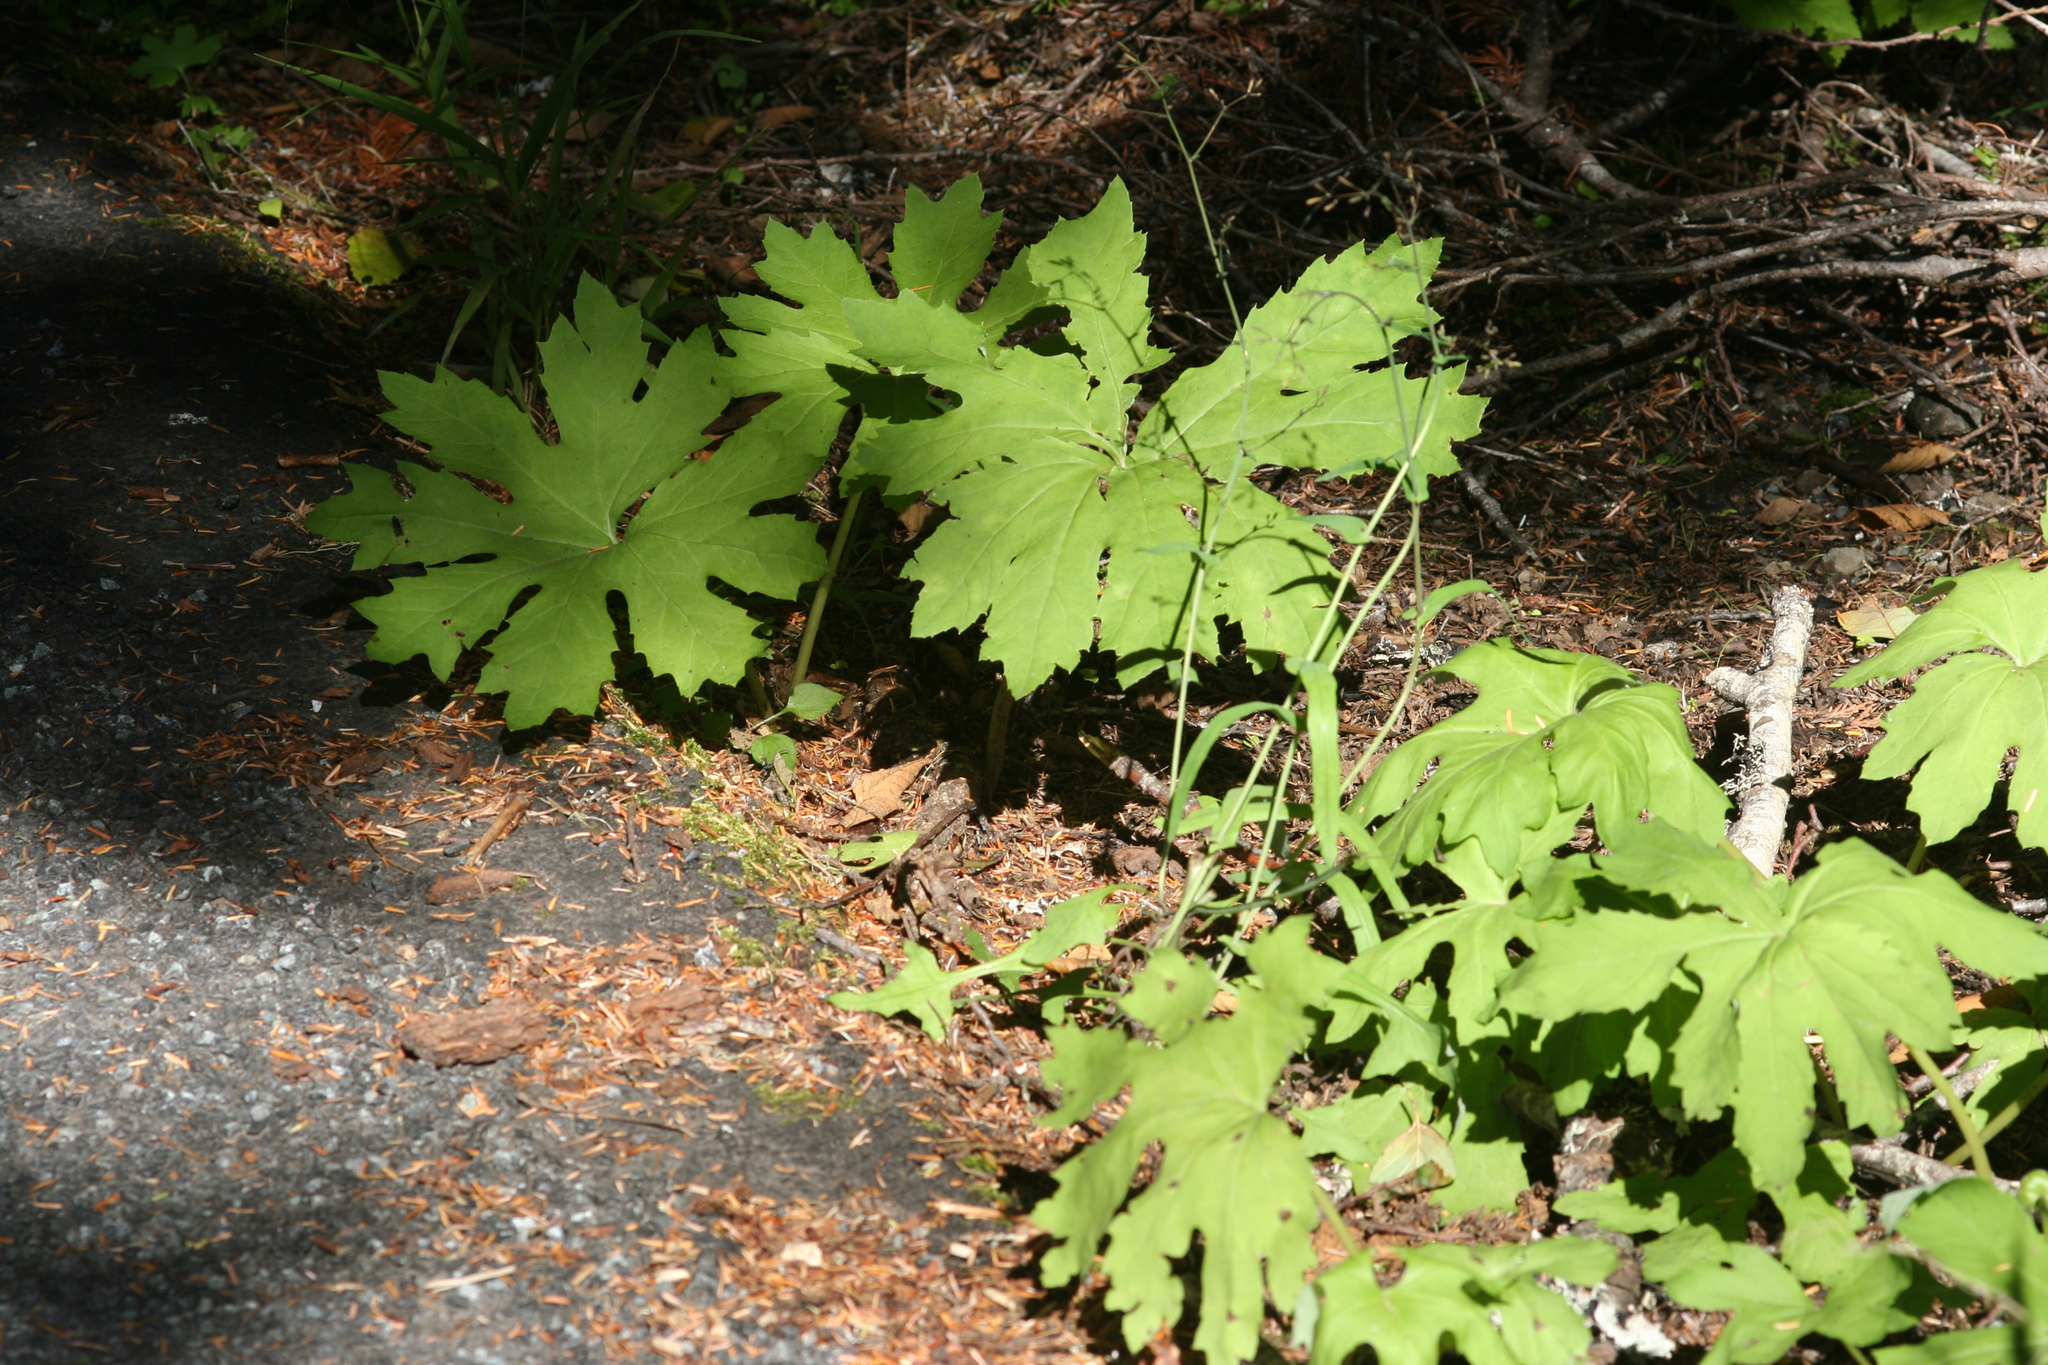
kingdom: Plantae
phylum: Tracheophyta
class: Magnoliopsida
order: Asterales
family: Asteraceae
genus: Petasites
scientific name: Petasites frigidus
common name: Arctic butterbur
